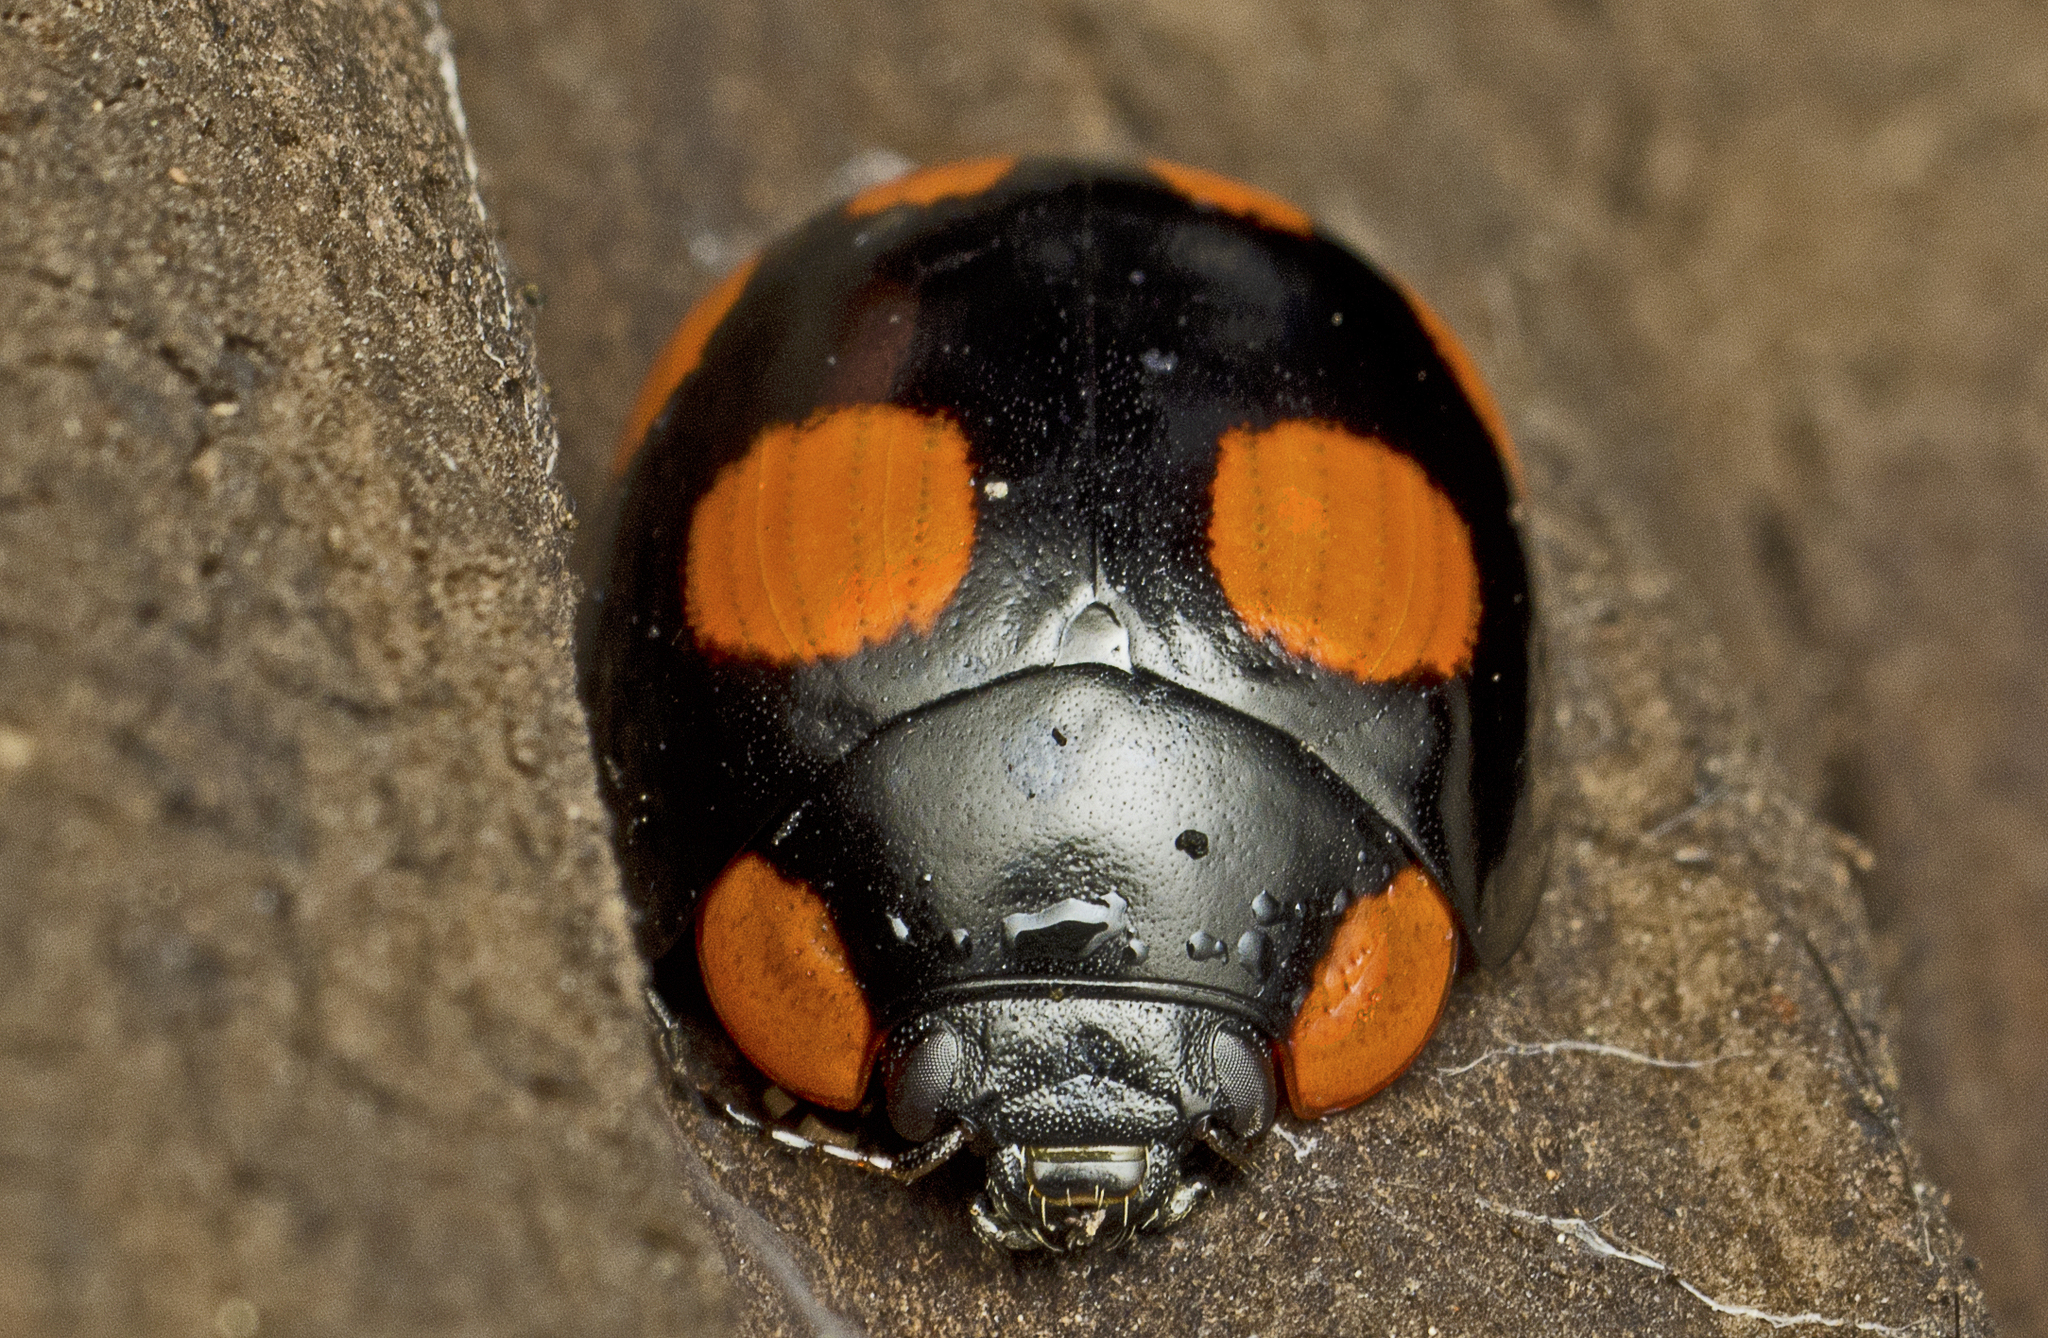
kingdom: Animalia
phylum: Arthropoda
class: Insecta
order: Coleoptera
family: Chrysomelidae
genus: Paropsisterna
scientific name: Paropsisterna
